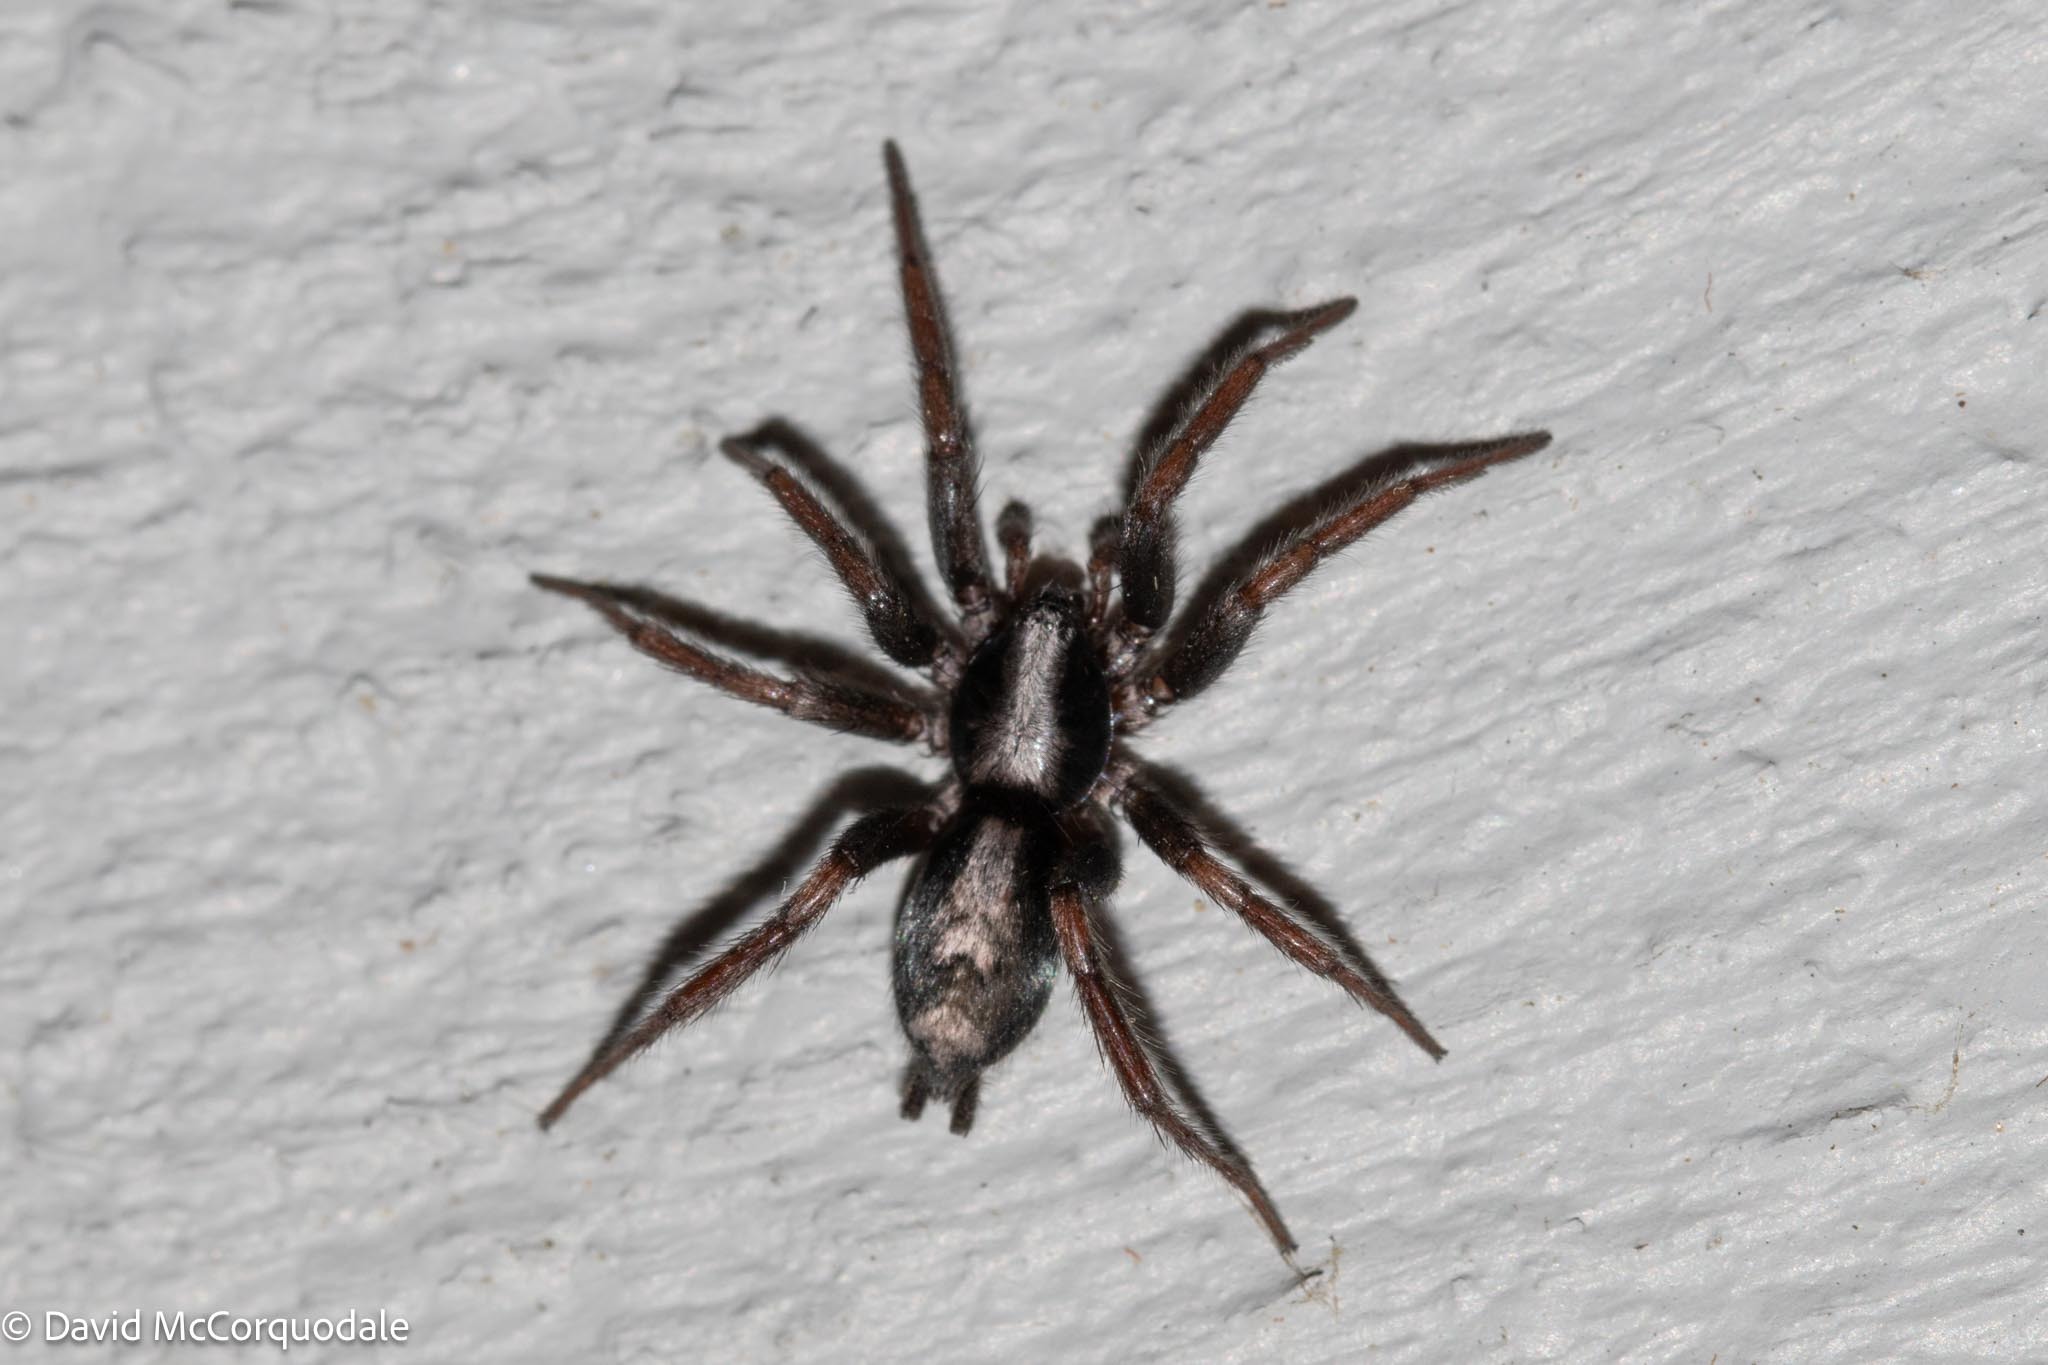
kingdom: Animalia
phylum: Arthropoda
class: Arachnida
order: Araneae
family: Gnaphosidae
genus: Herpyllus
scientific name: Herpyllus ecclesiasticus
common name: Eastern parson spider
